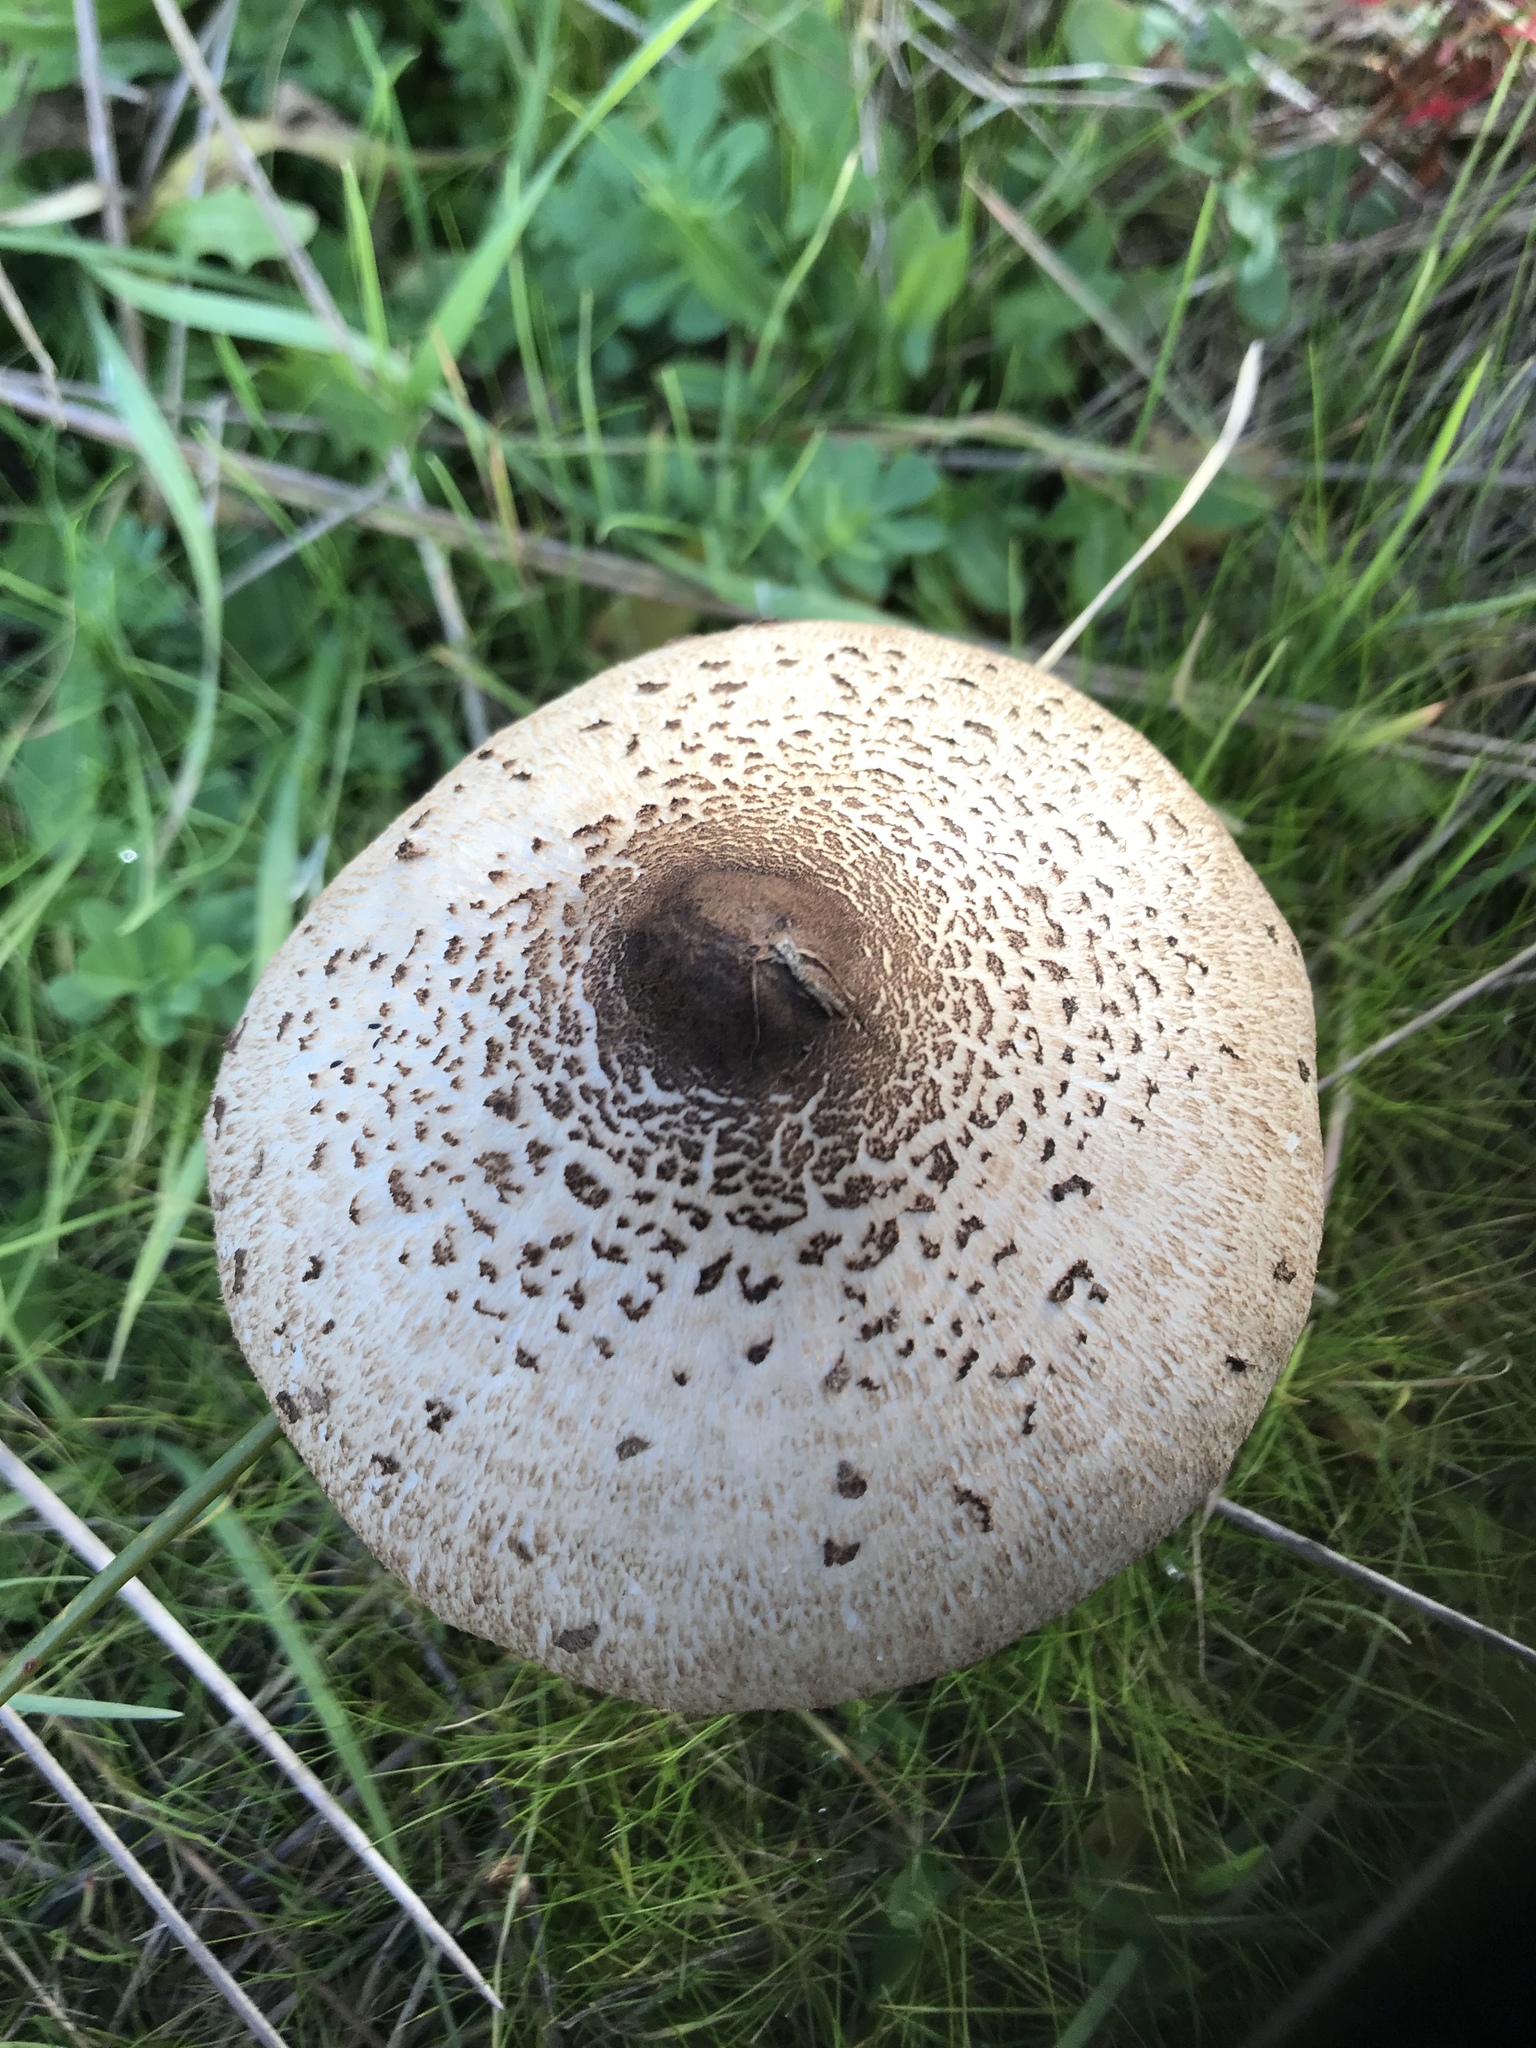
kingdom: Fungi
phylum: Basidiomycota
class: Agaricomycetes
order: Agaricales
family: Agaricaceae
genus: Macrolepiota
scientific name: Macrolepiota clelandii
